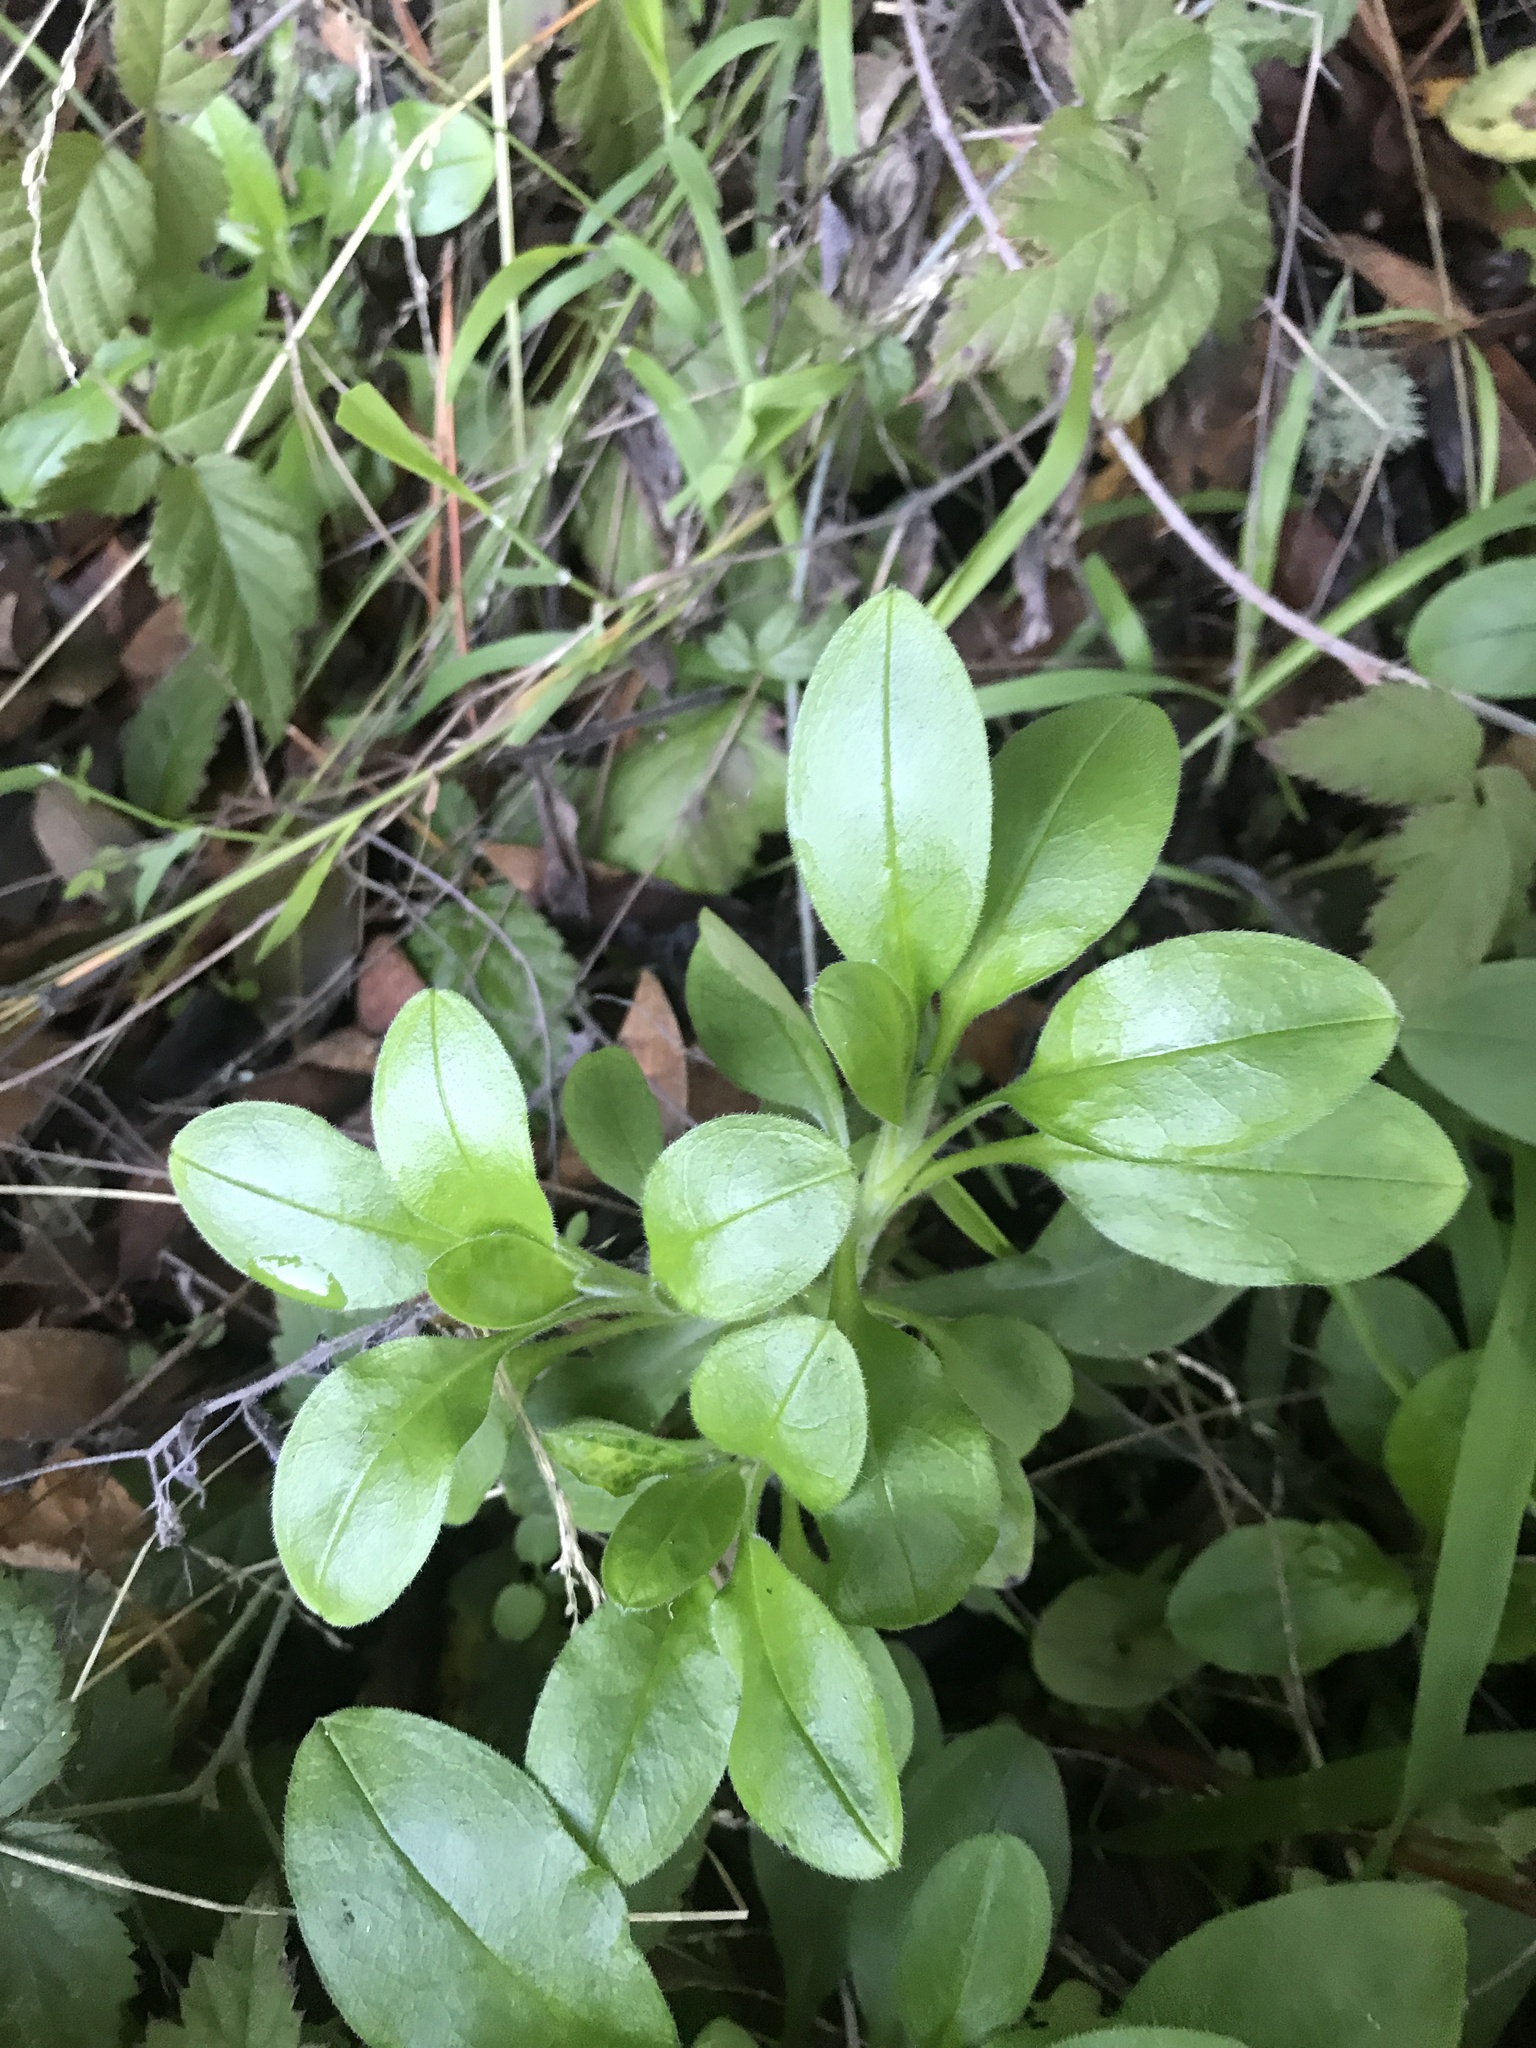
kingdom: Plantae
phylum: Tracheophyta
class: Magnoliopsida
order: Boraginales
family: Boraginaceae
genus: Myosotis
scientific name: Myosotis latifolia
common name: Broadleaf forget-me-not
